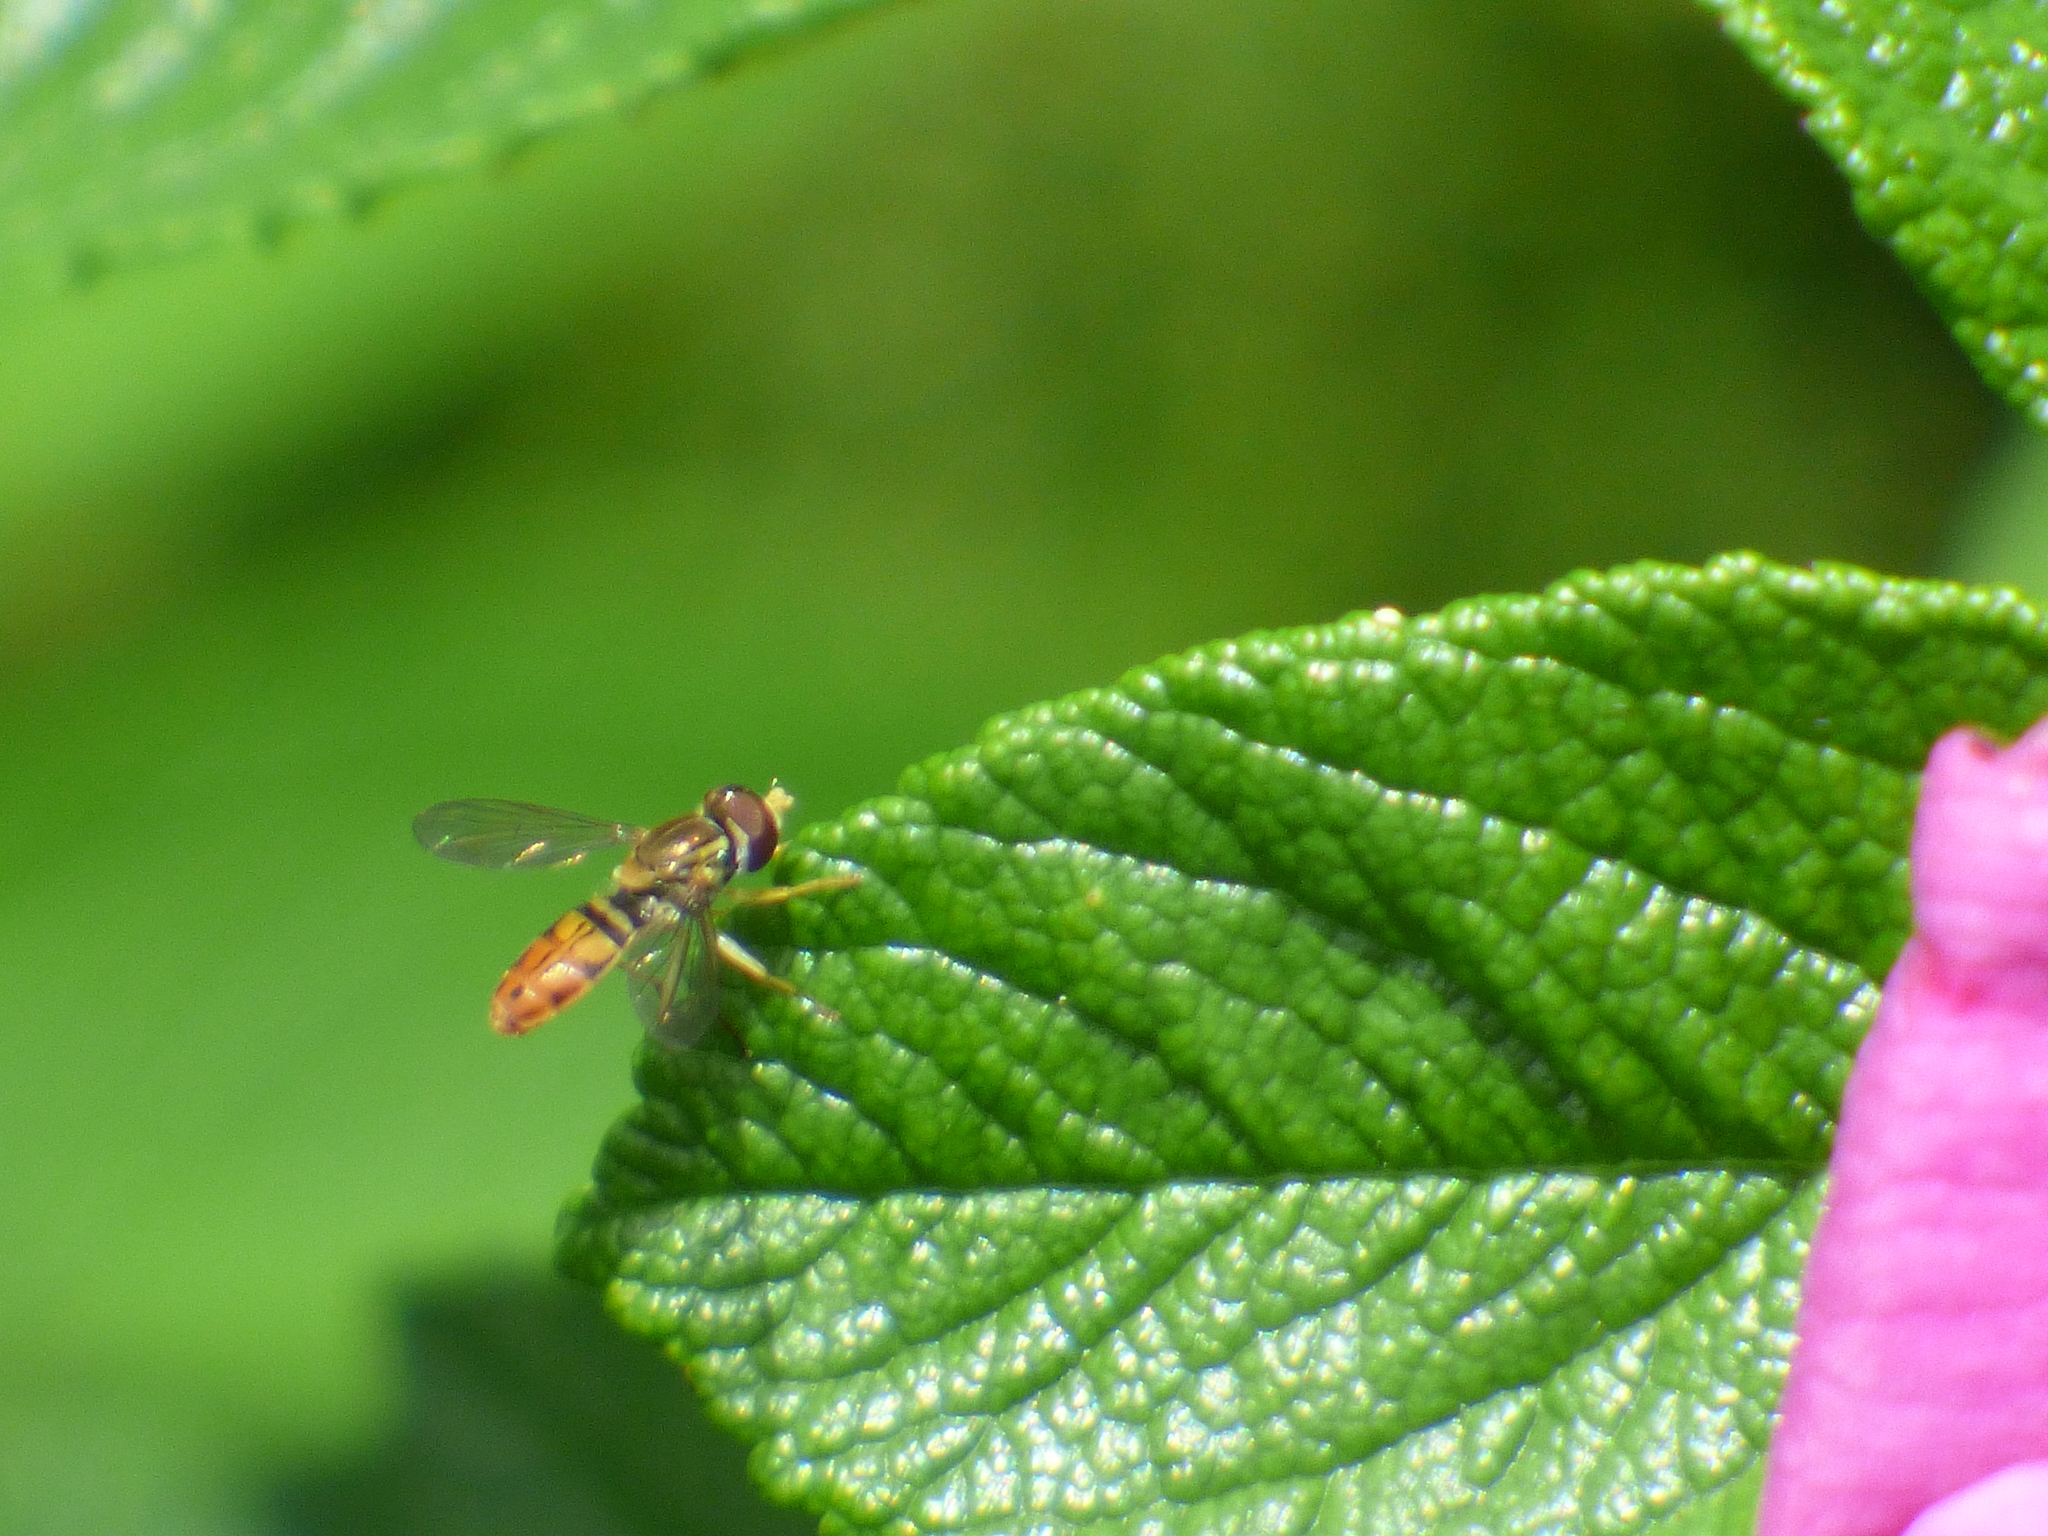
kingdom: Animalia
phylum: Arthropoda
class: Insecta
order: Diptera
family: Syrphidae
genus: Toxomerus
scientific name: Toxomerus marginatus
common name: Syrphid fly
